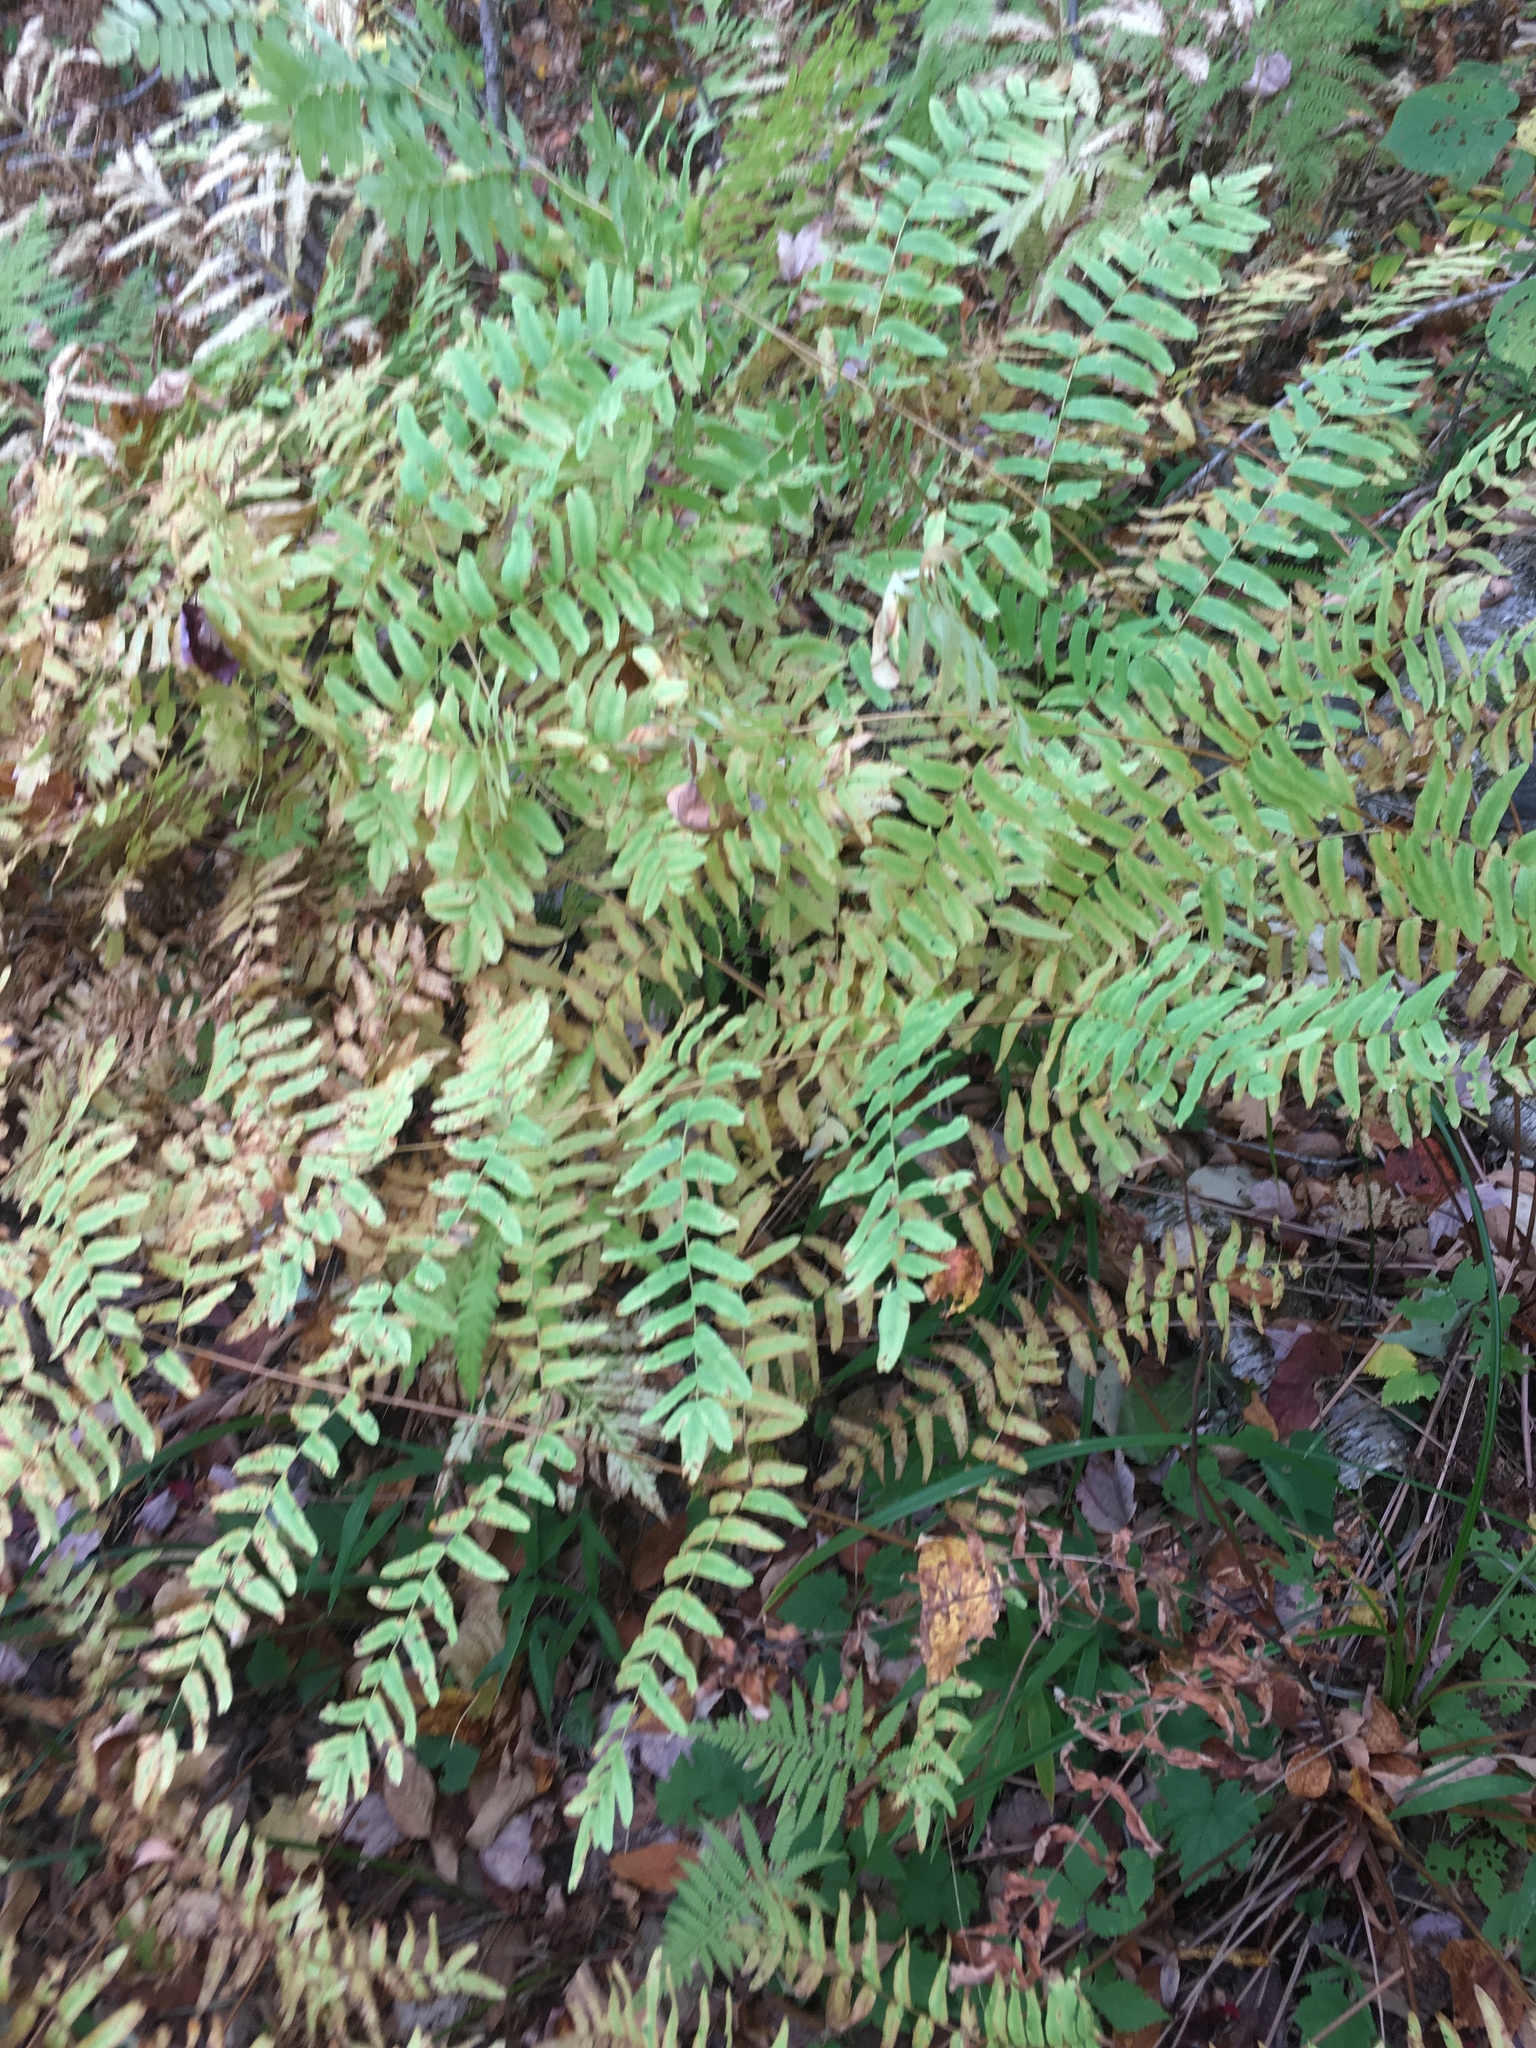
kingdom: Plantae
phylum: Tracheophyta
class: Polypodiopsida
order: Osmundales
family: Osmundaceae
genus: Osmunda
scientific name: Osmunda spectabilis
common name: American royal fern
